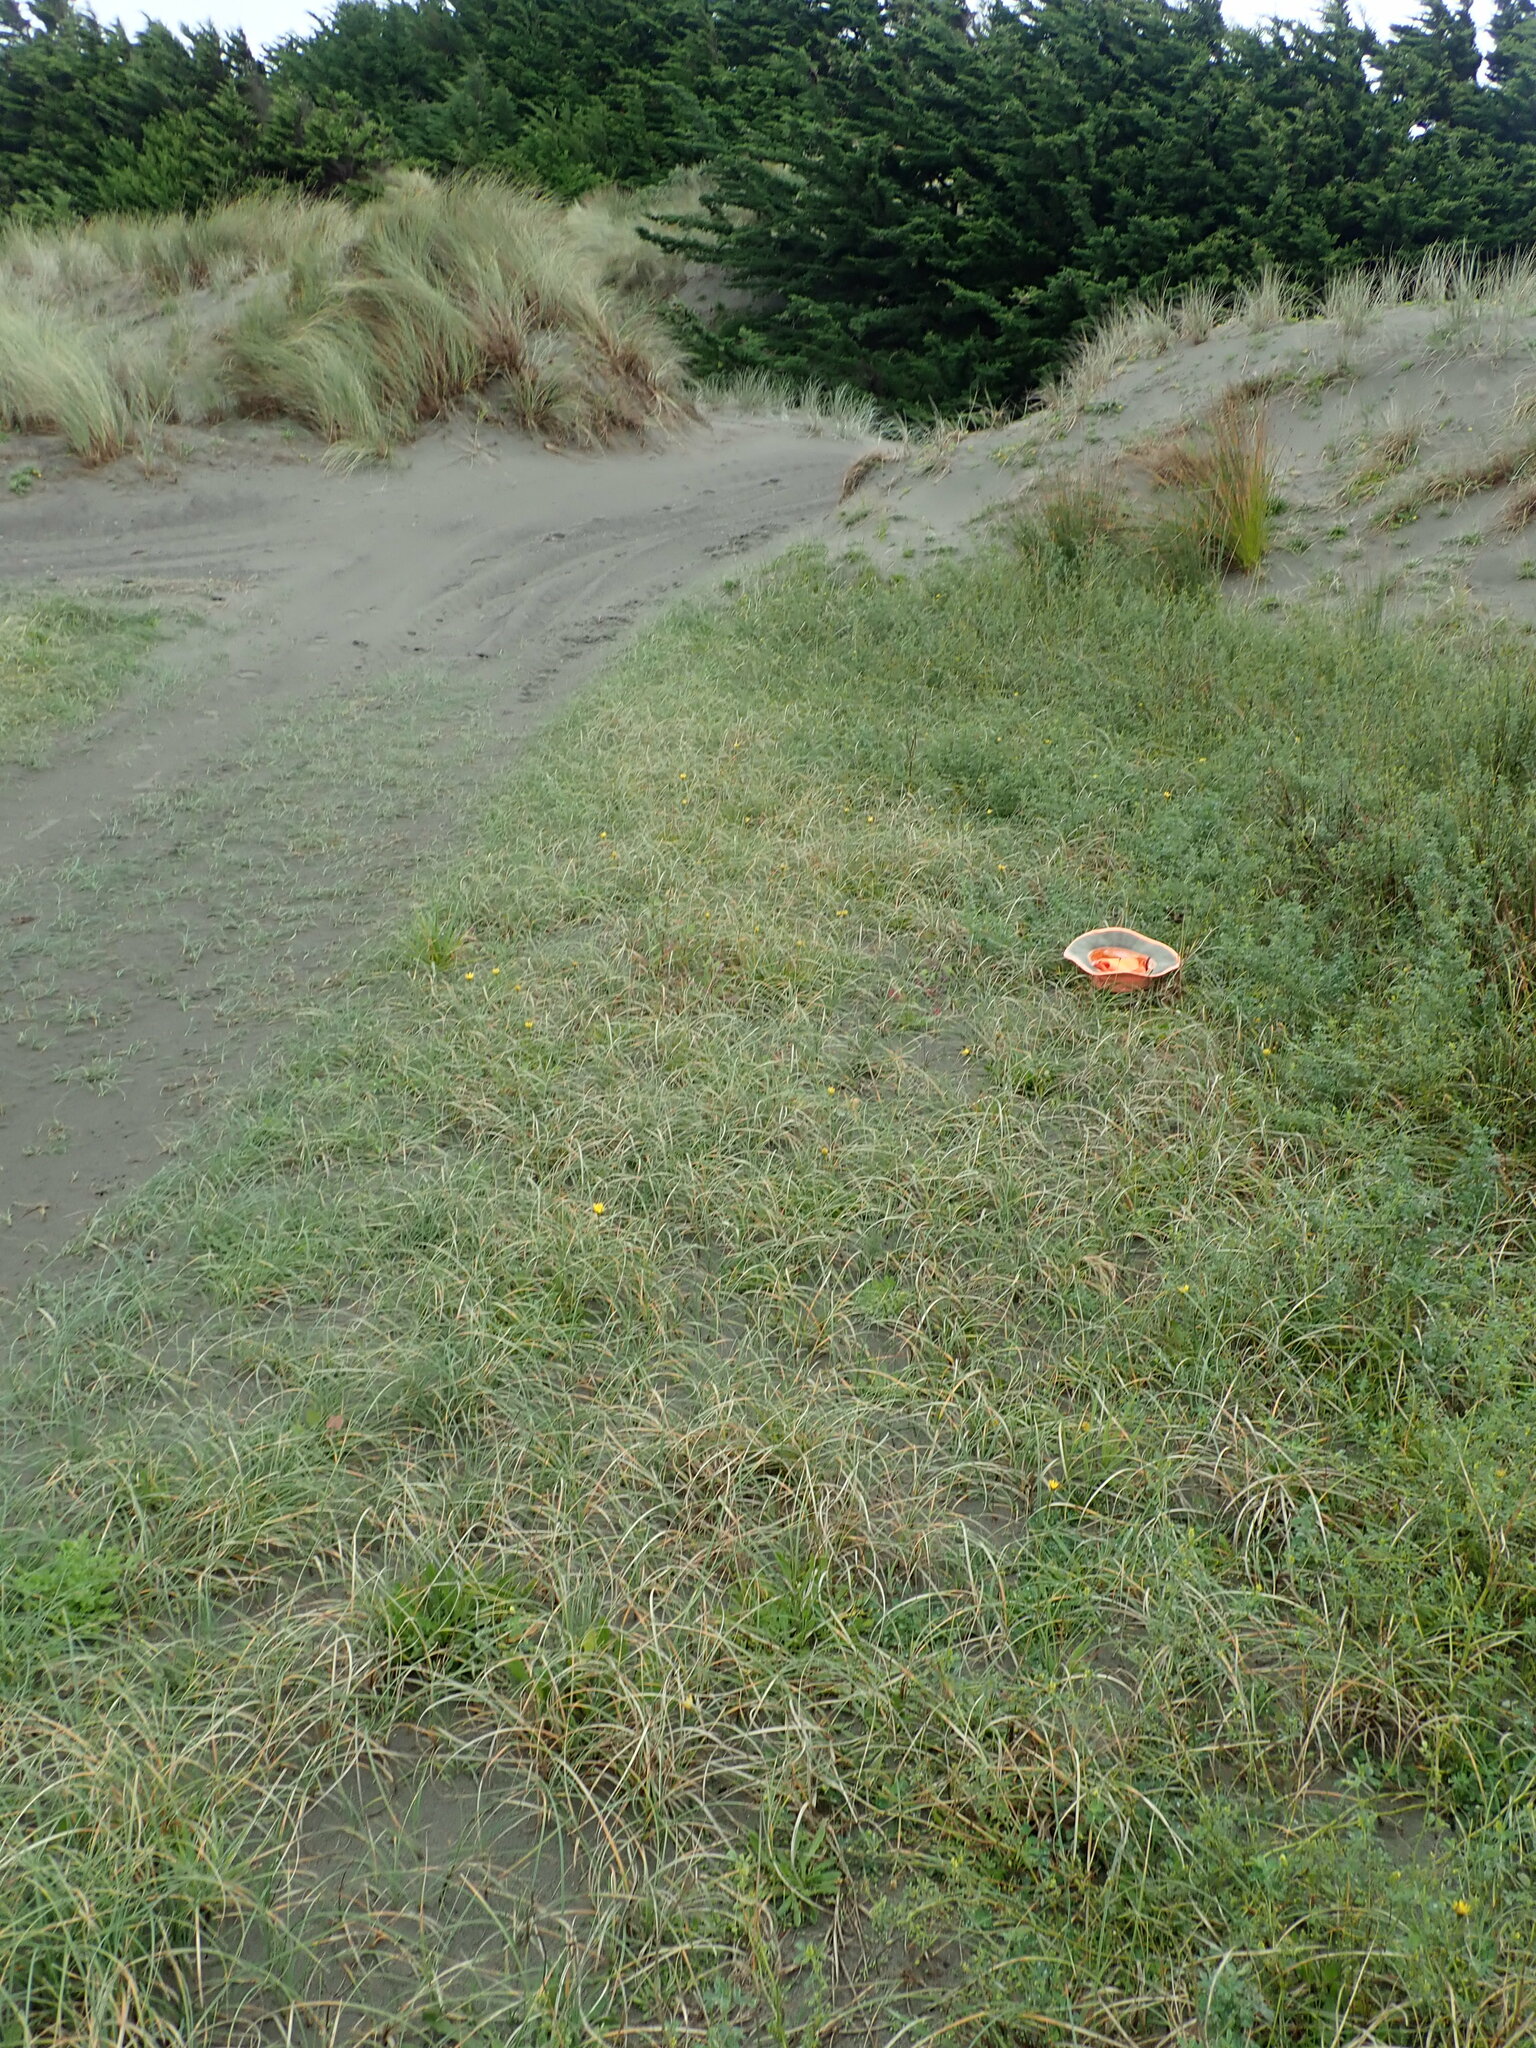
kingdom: Plantae
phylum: Tracheophyta
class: Liliopsida
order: Poales
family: Cyperaceae
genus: Isolepis
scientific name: Isolepis cernua
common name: Slender club-rush
